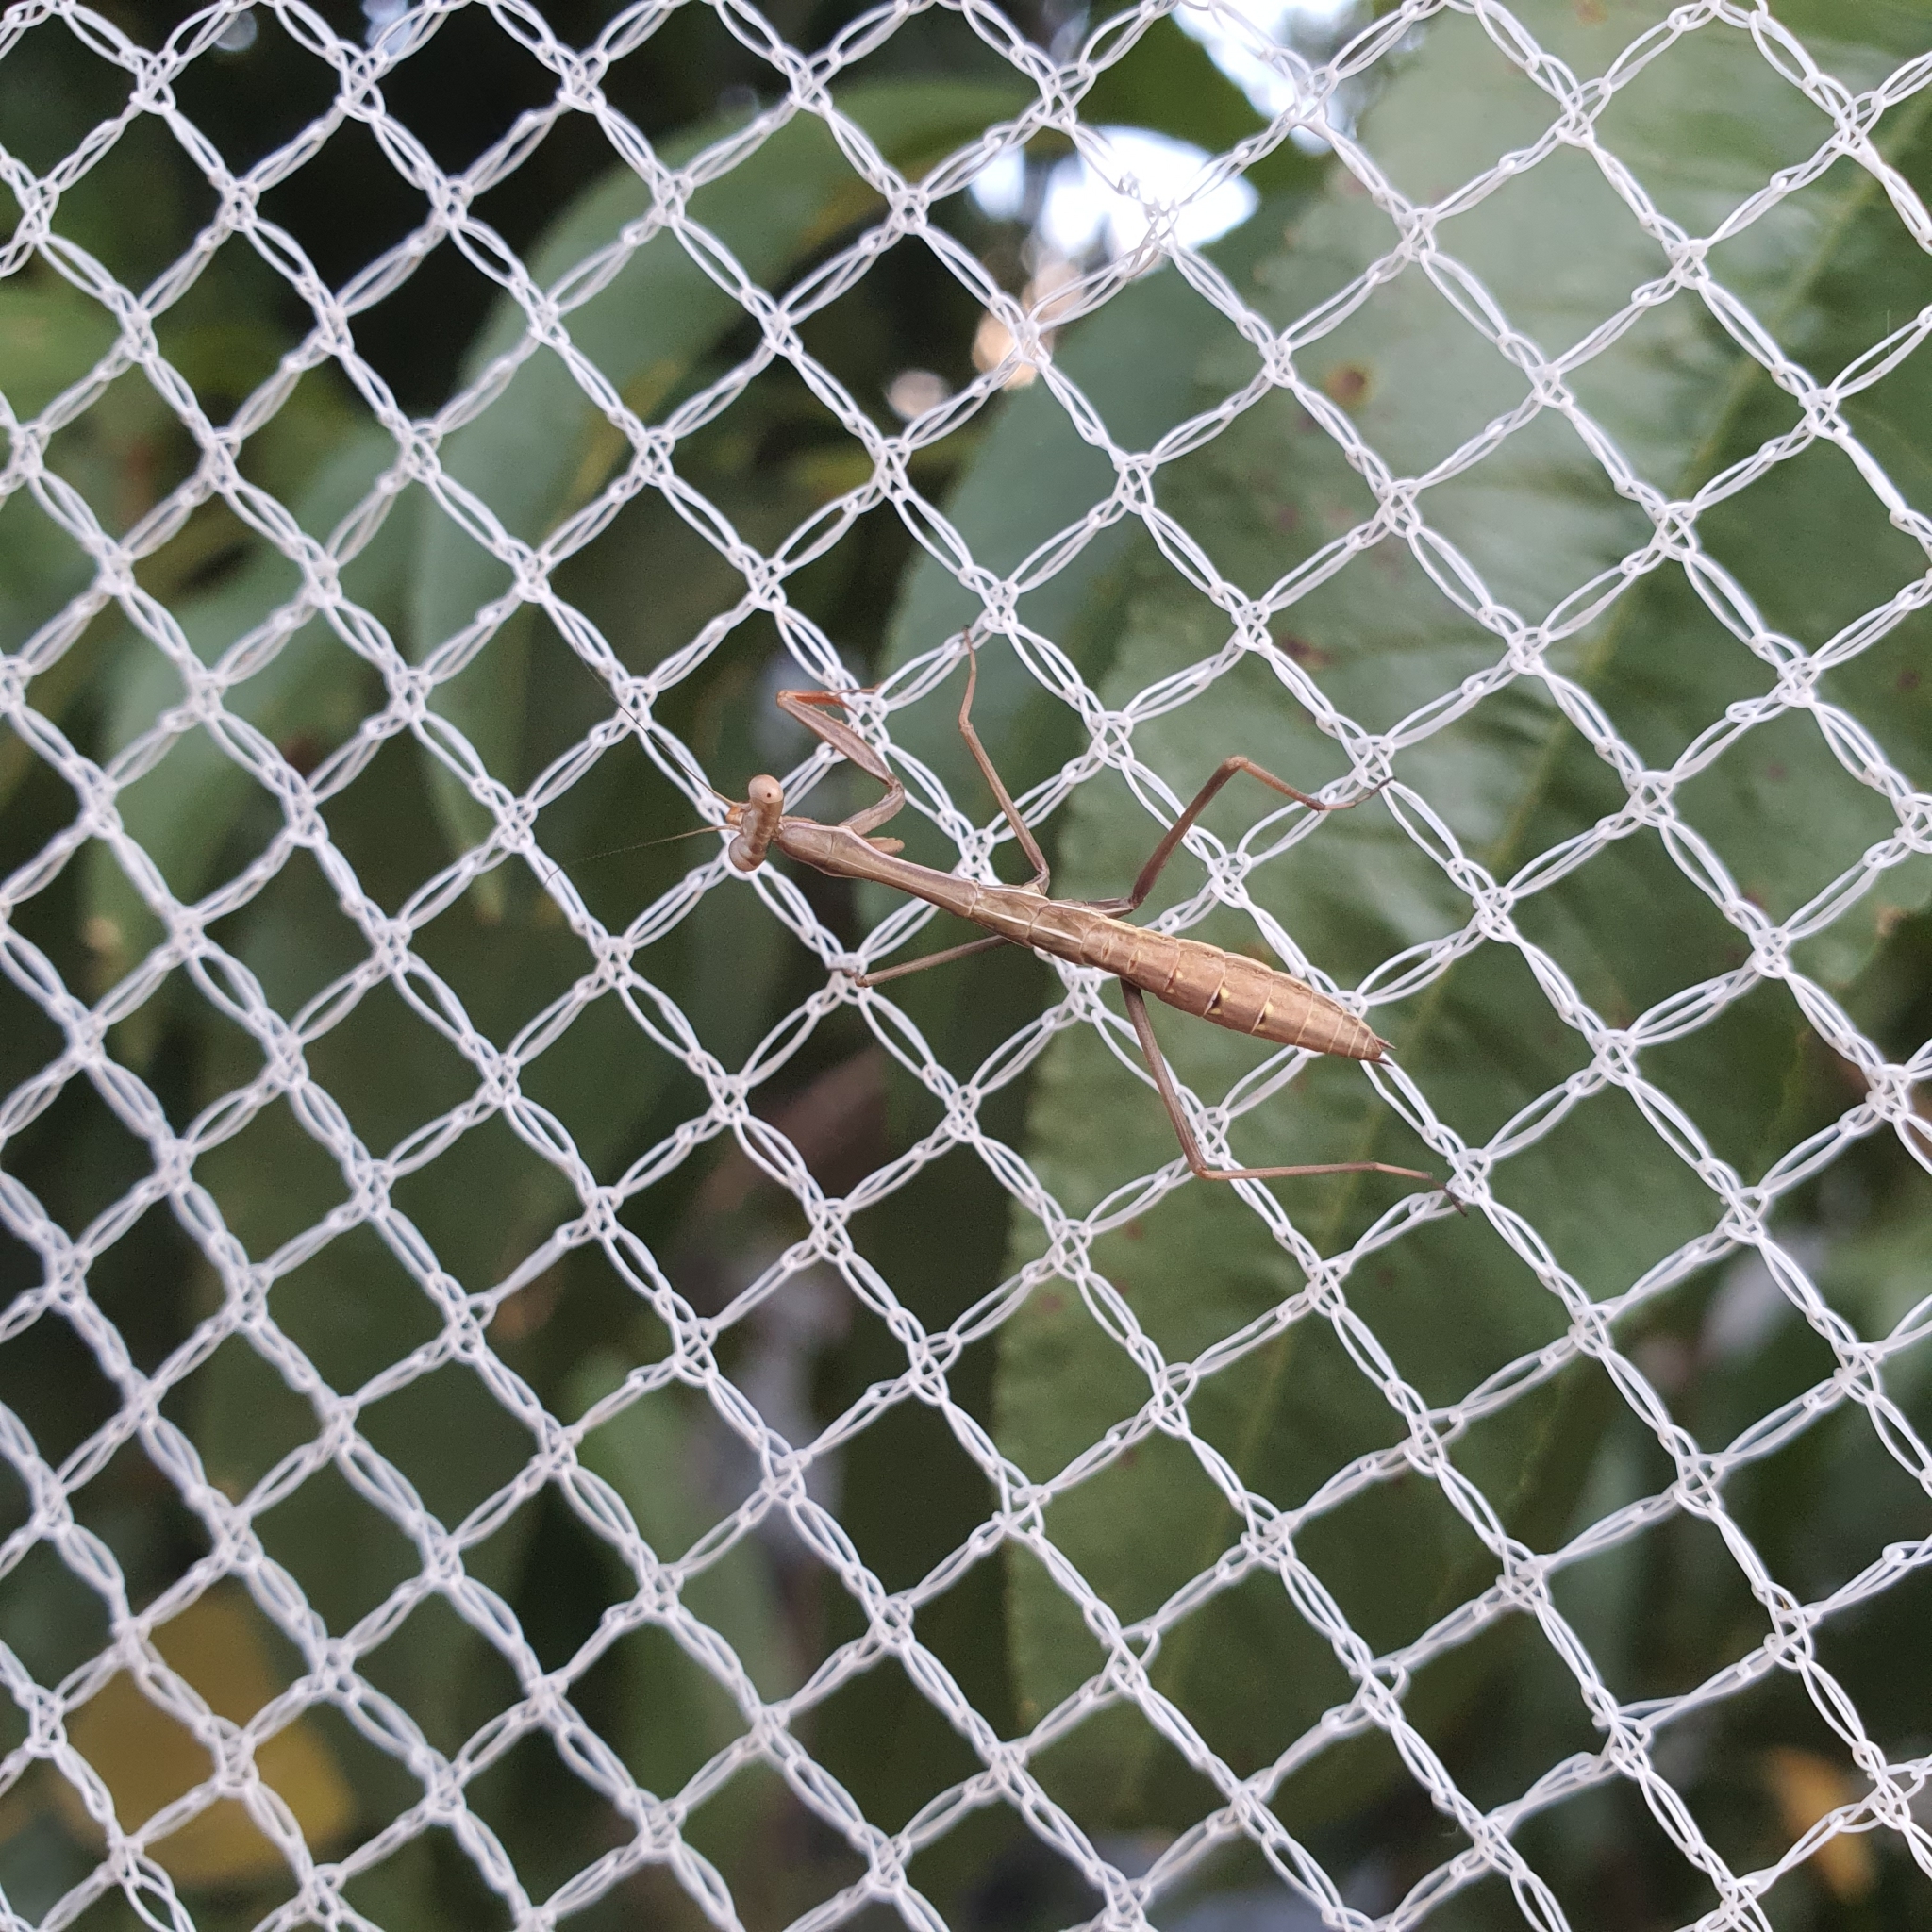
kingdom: Animalia
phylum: Arthropoda
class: Insecta
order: Mantodea
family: Mantidae
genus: Pseudomantis
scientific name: Pseudomantis albofimbriata
